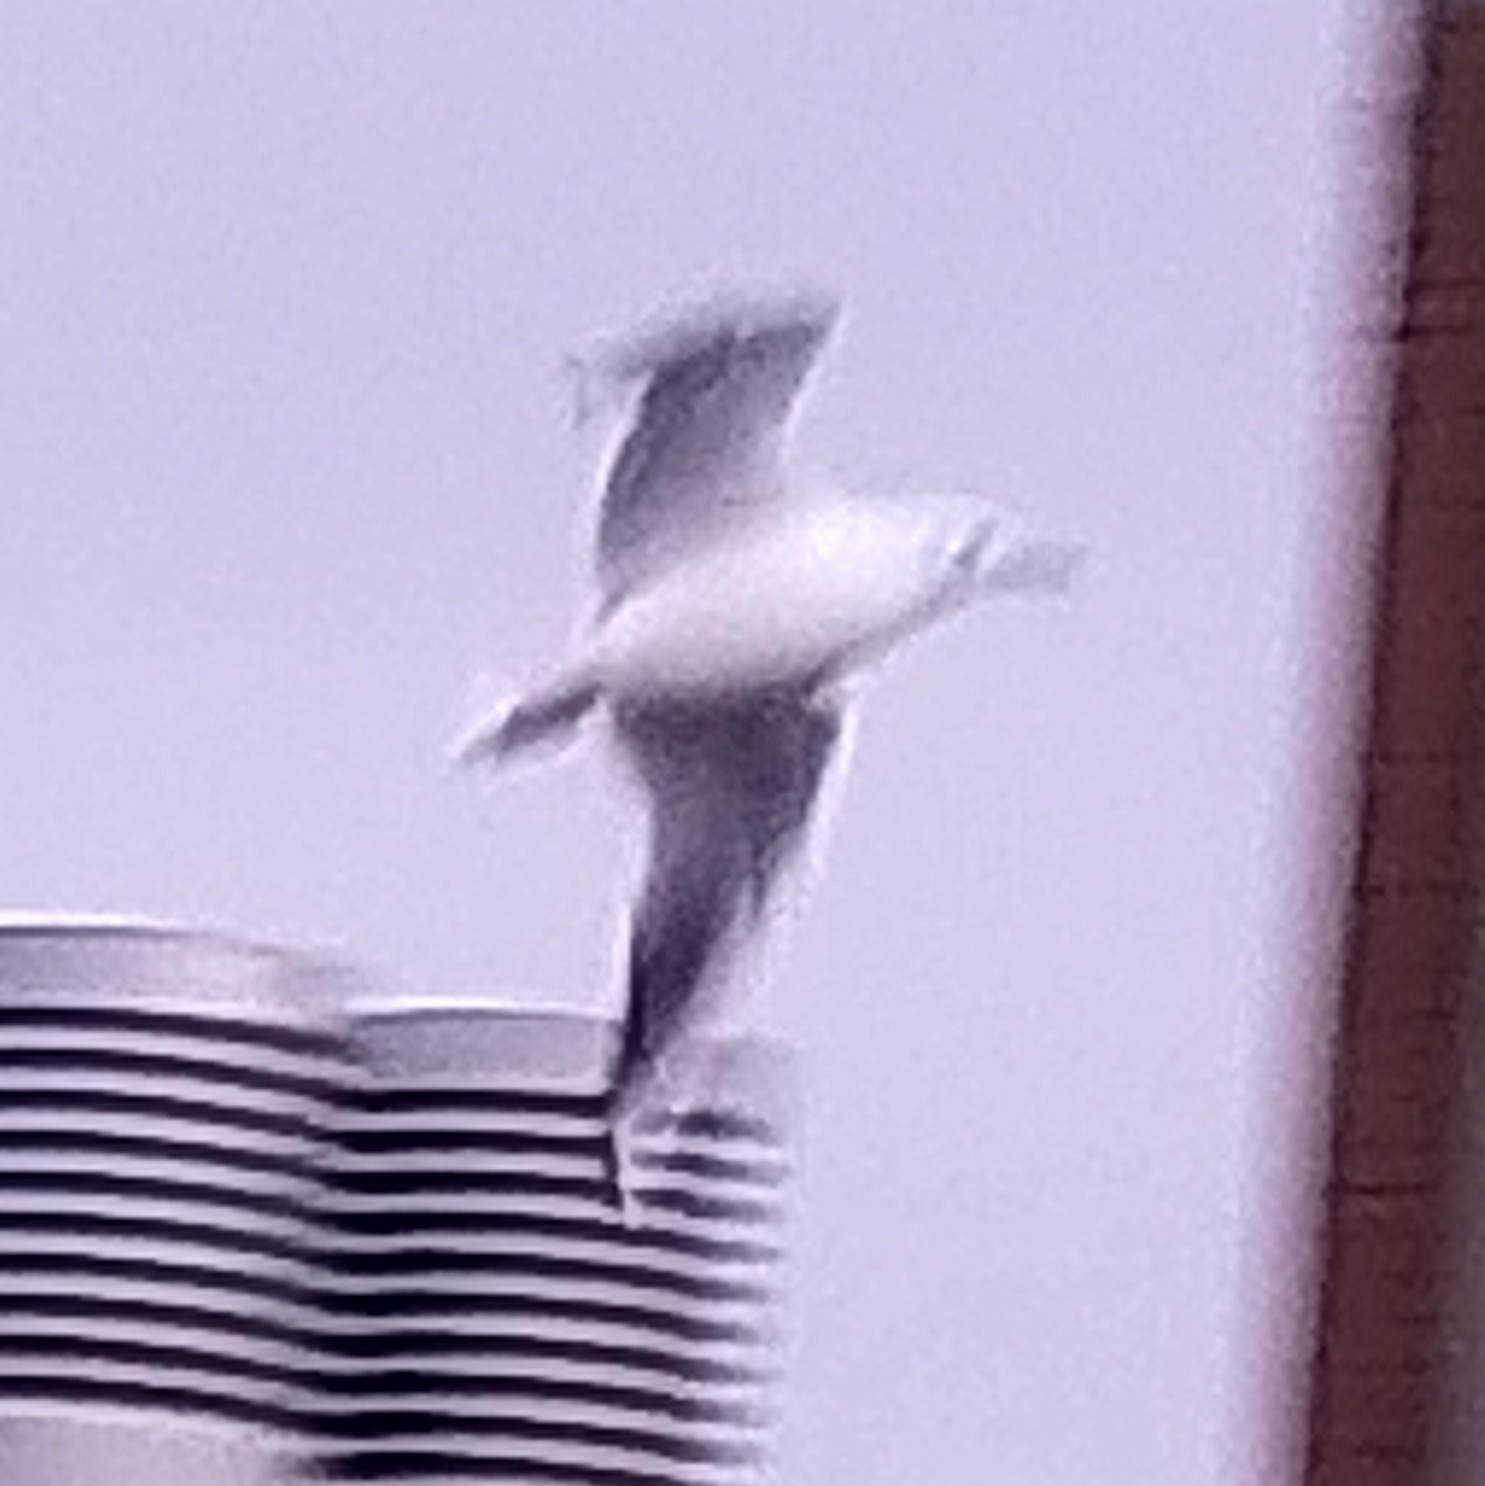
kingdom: Animalia
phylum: Chordata
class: Aves
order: Charadriiformes
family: Laridae
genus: Chroicocephalus
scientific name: Chroicocephalus ridibundus
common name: Black-headed gull
